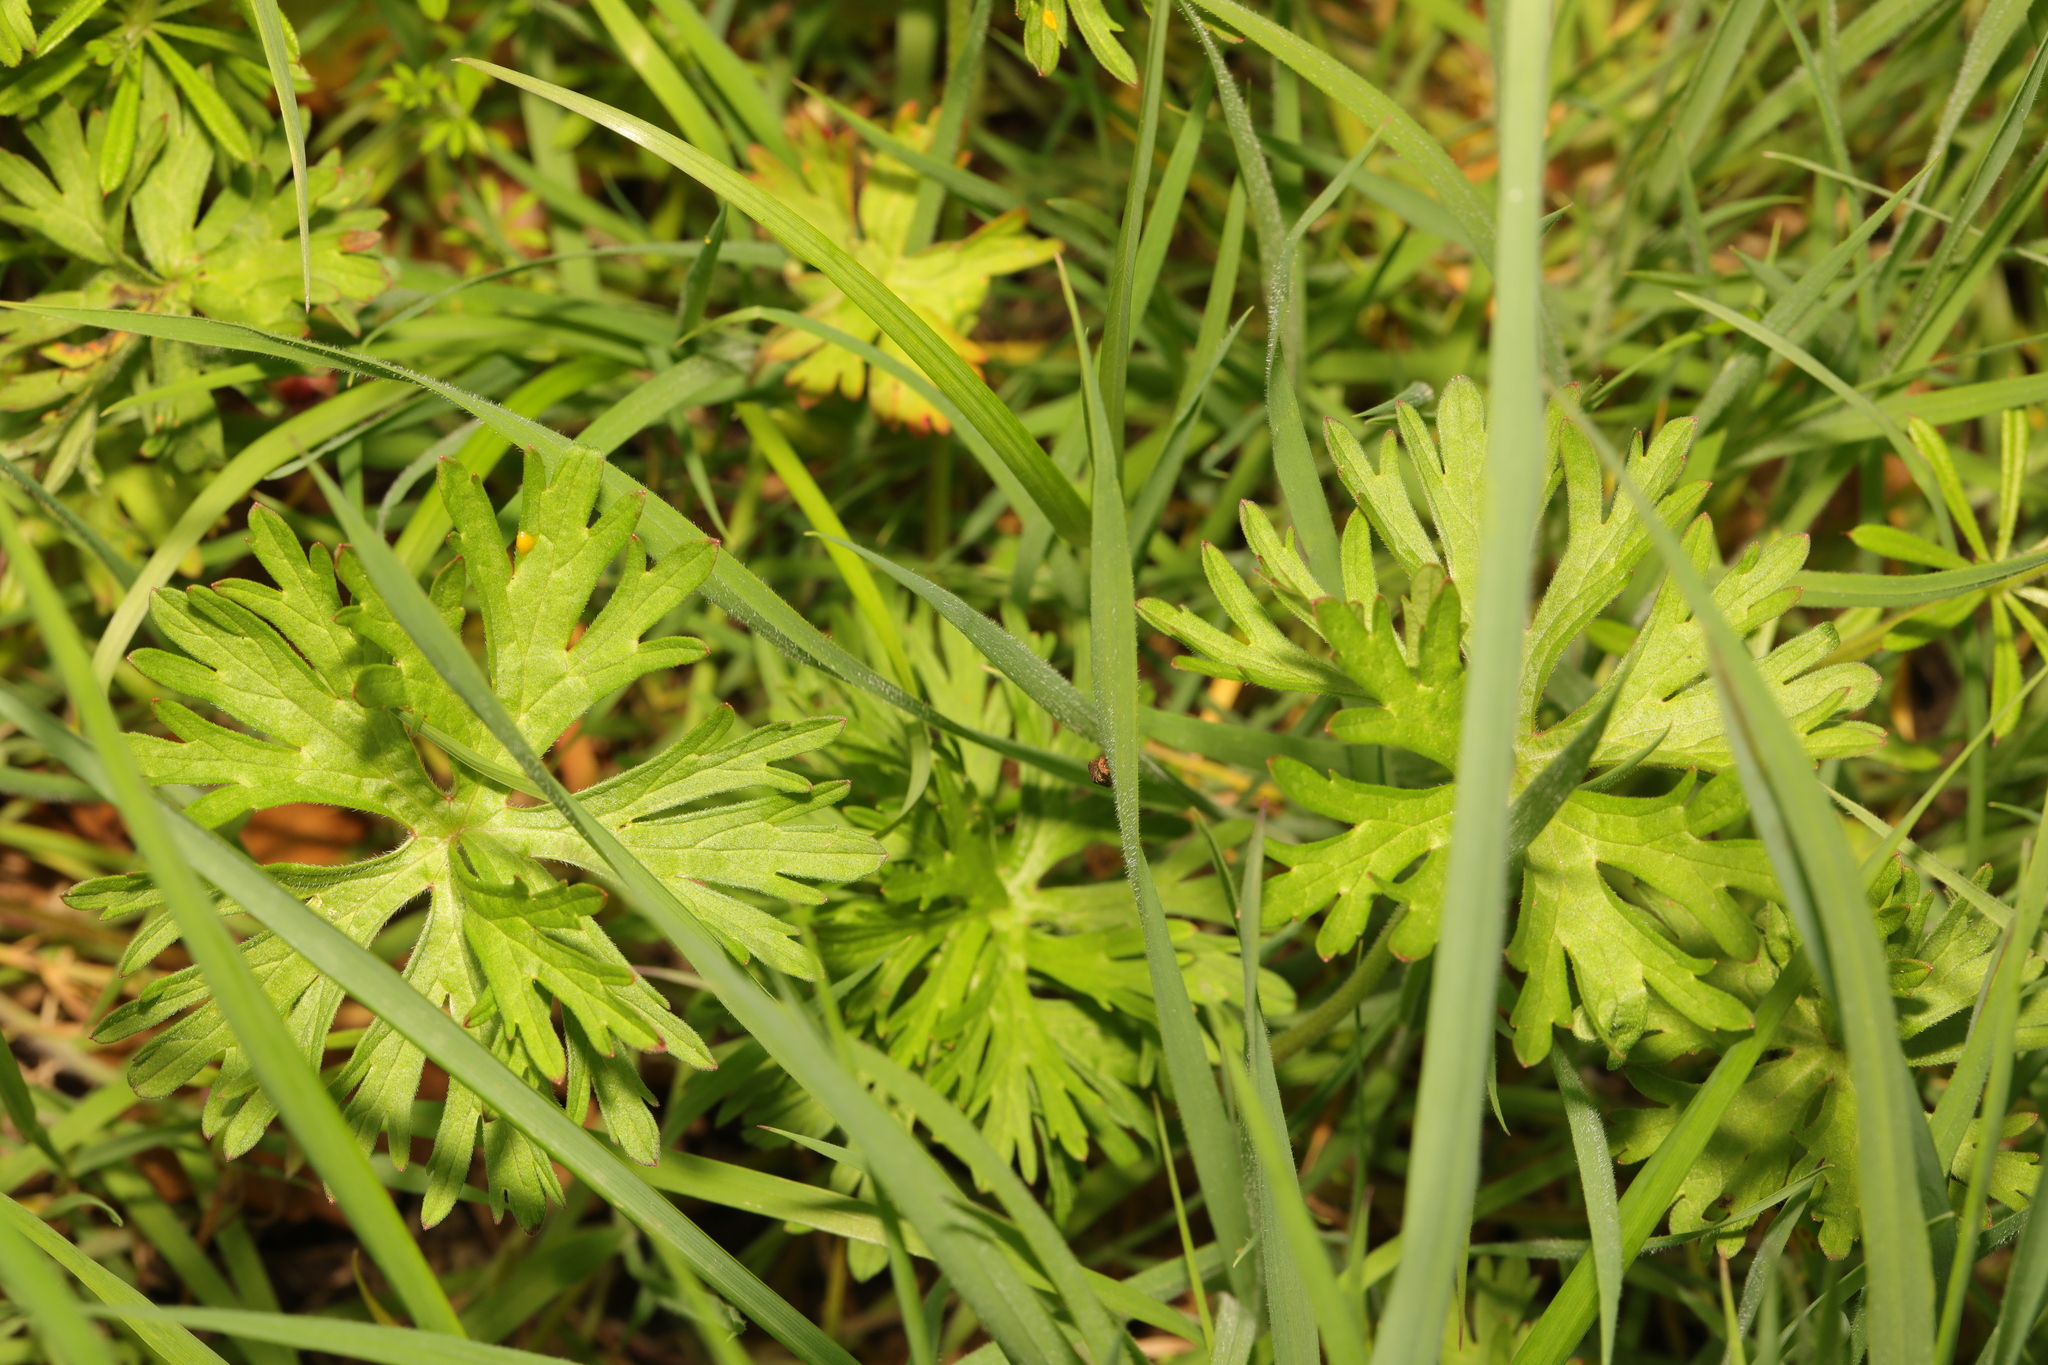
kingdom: Plantae
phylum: Tracheophyta
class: Magnoliopsida
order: Geraniales
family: Geraniaceae
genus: Geranium
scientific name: Geranium dissectum
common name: Cut-leaved crane's-bill
